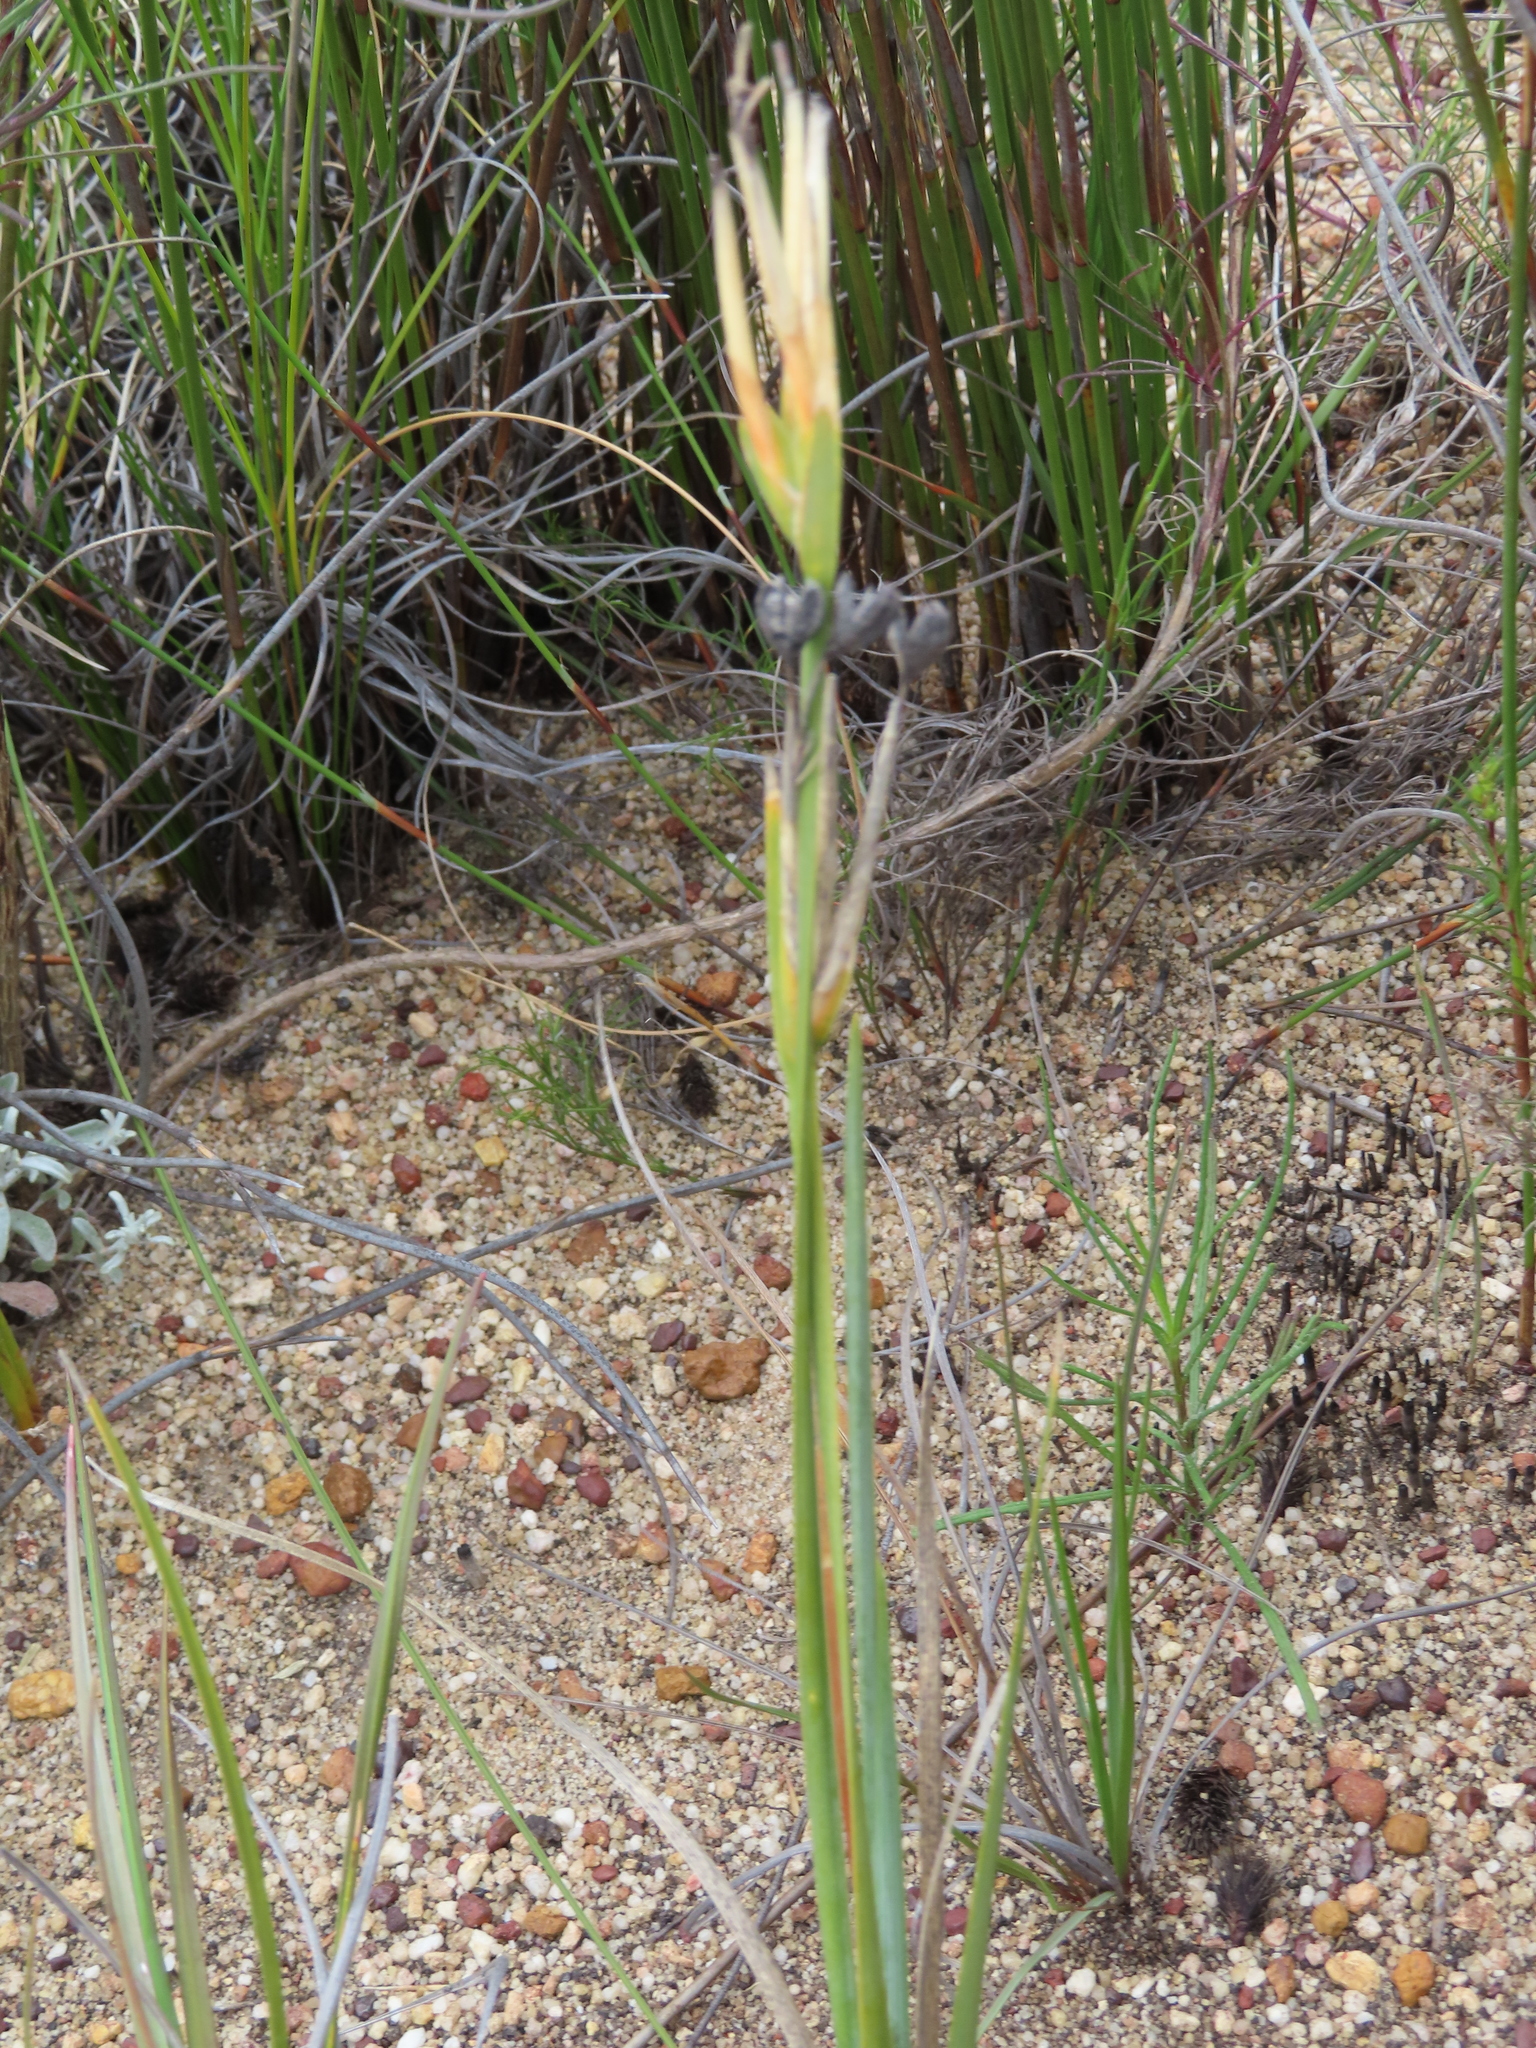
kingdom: Plantae
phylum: Tracheophyta
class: Liliopsida
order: Asparagales
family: Iridaceae
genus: Bobartia
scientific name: Bobartia gladiata
